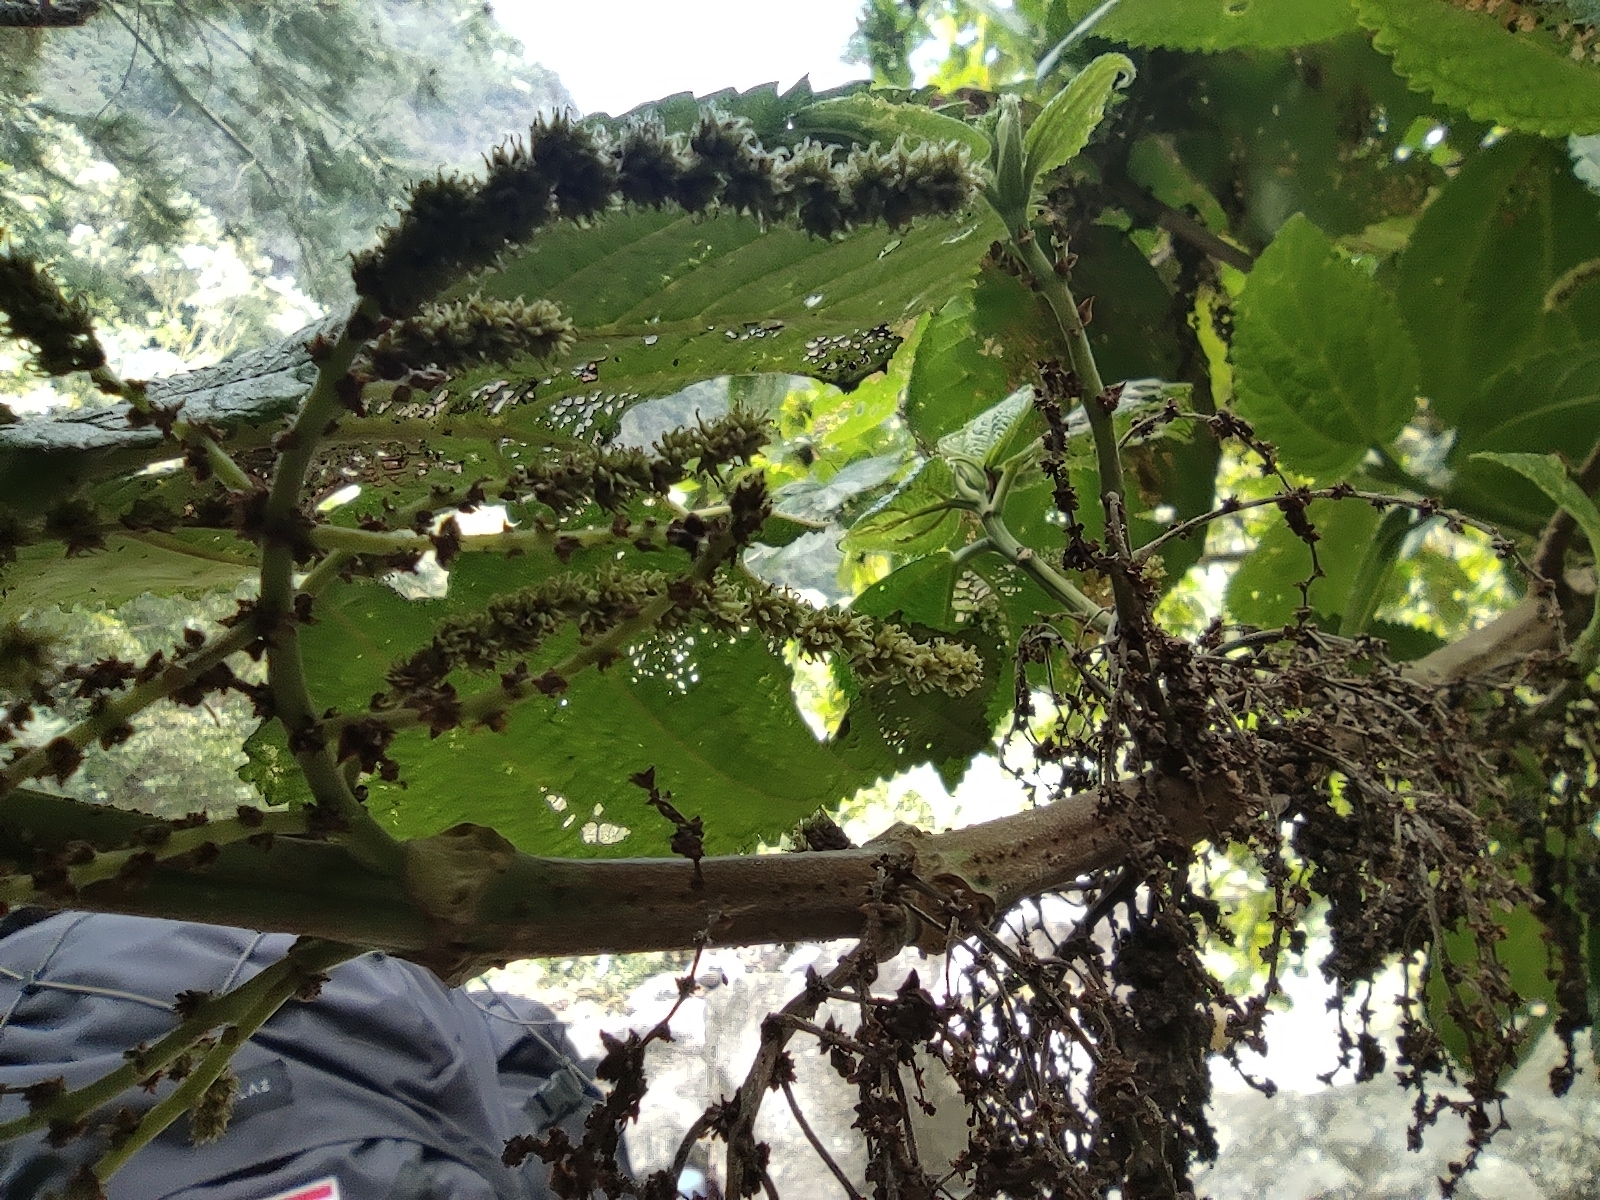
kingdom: Plantae
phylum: Tracheophyta
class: Magnoliopsida
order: Rosales
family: Urticaceae
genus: Boehmeria
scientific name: Boehmeria grandis
